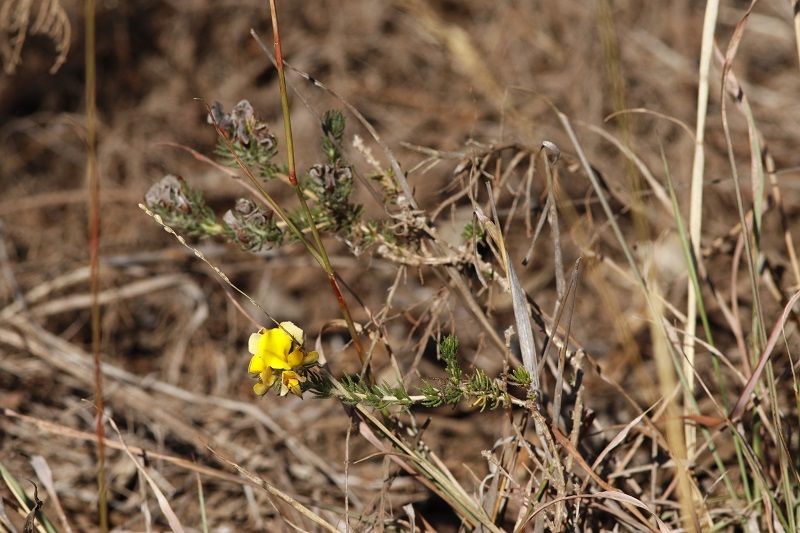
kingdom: Plantae
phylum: Tracheophyta
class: Magnoliopsida
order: Fabales
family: Fabaceae
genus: Aspalathus
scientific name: Aspalathus ciliaris
